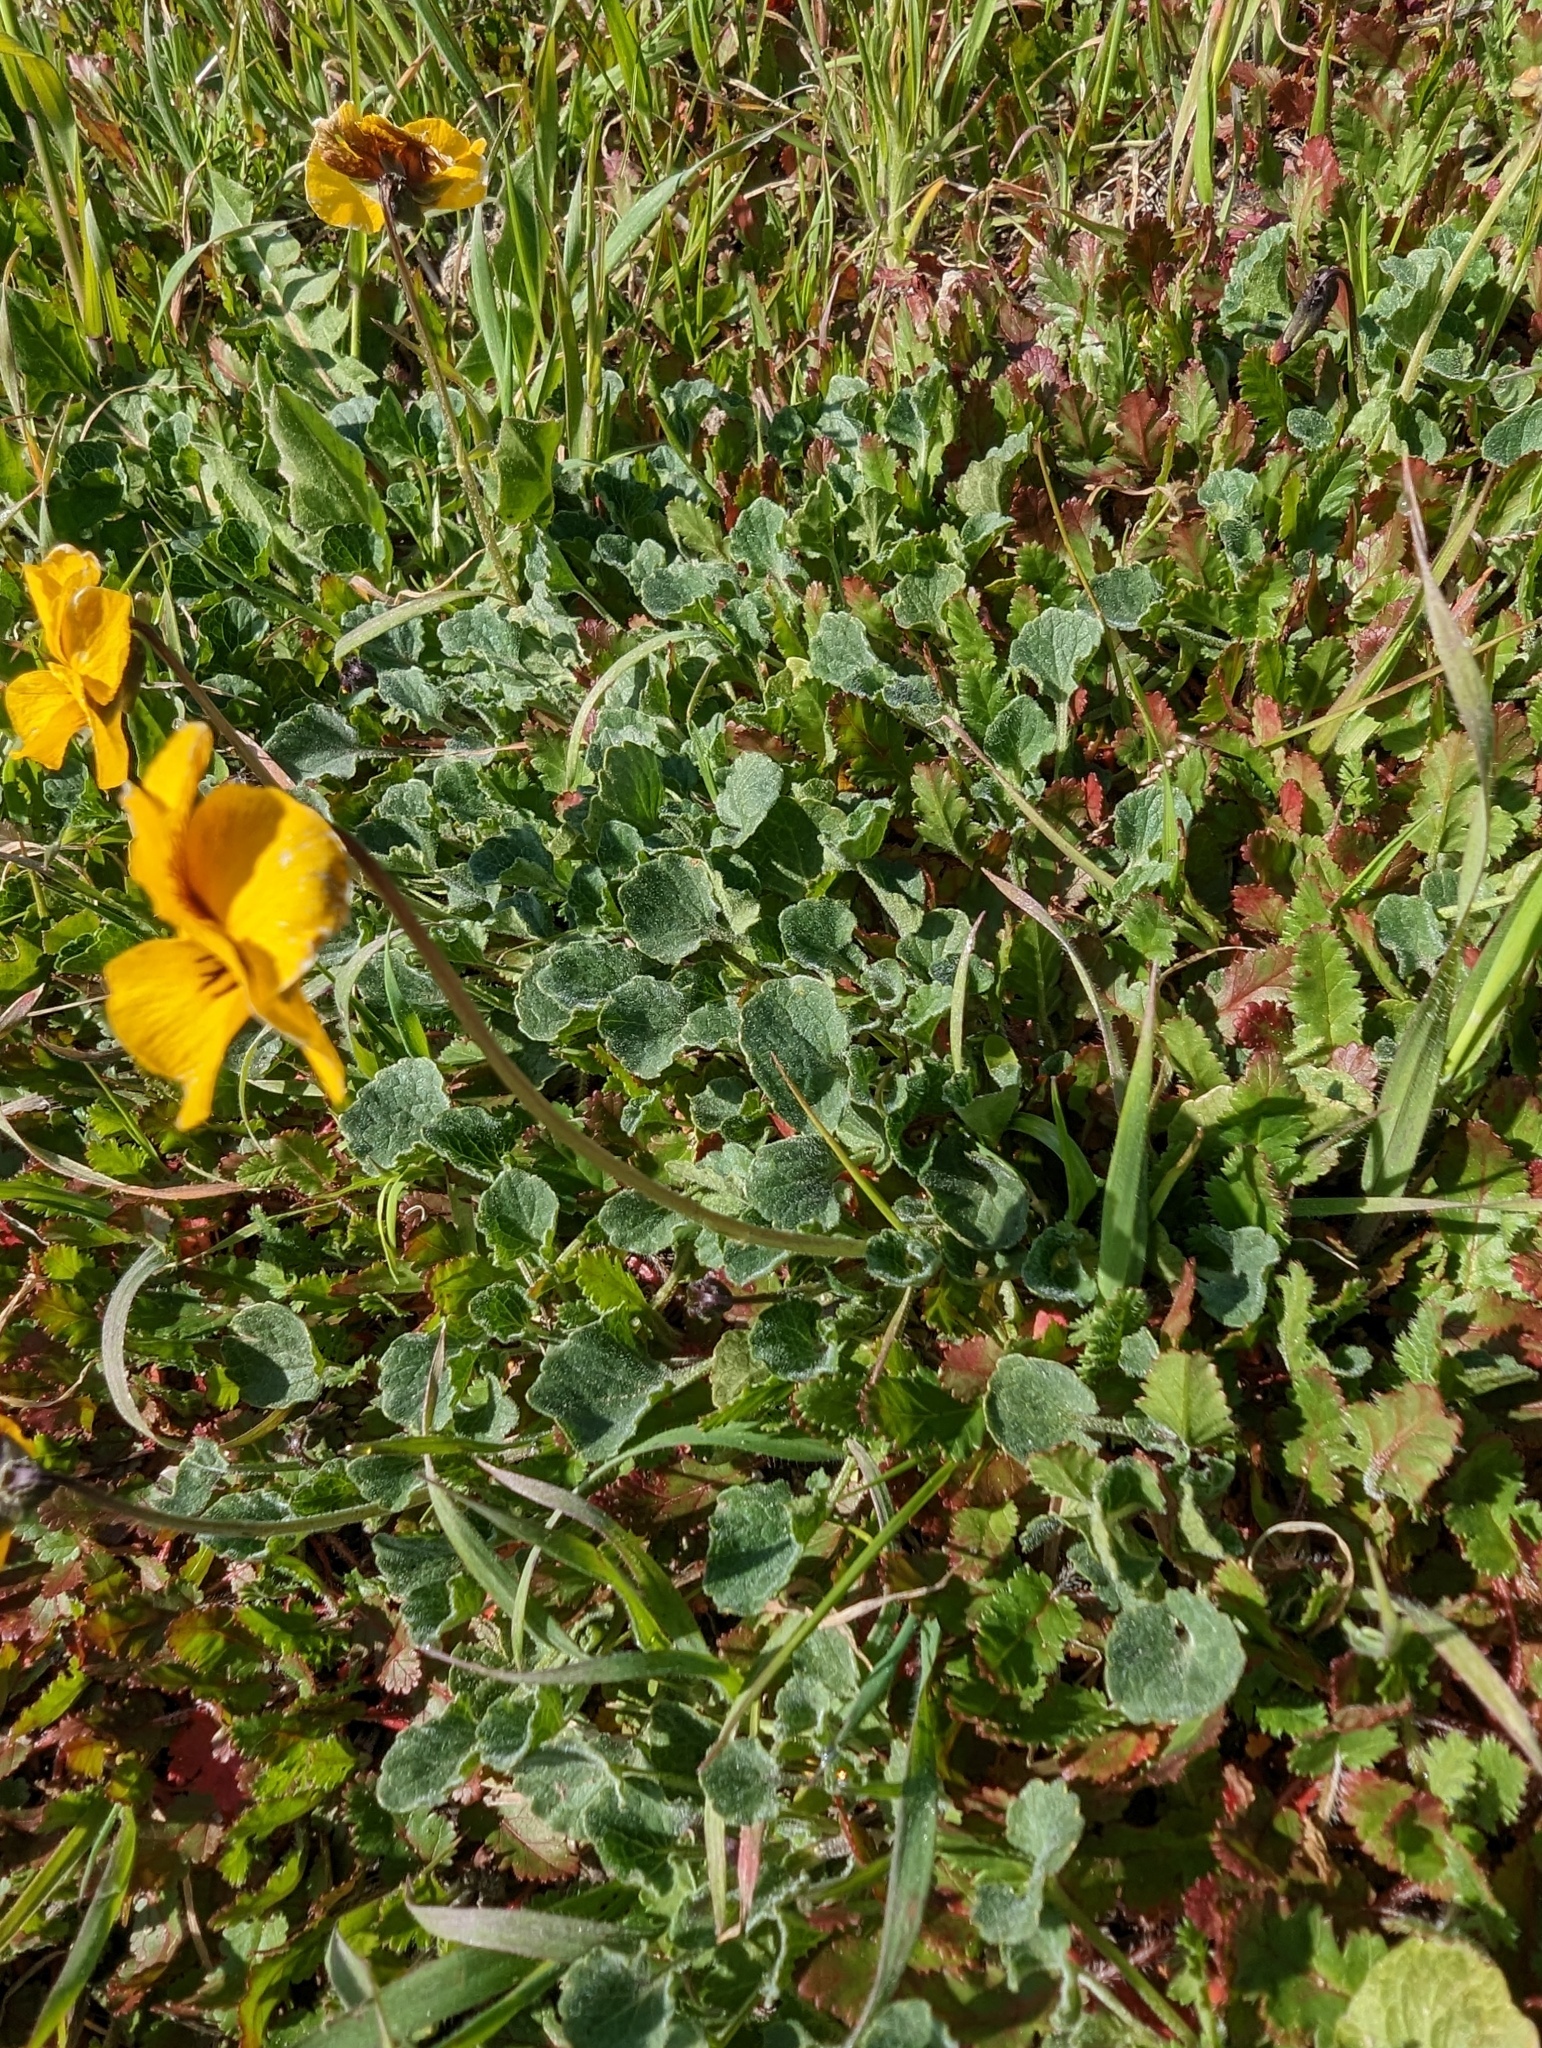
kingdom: Plantae
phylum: Tracheophyta
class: Magnoliopsida
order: Malpighiales
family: Violaceae
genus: Viola
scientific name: Viola pedunculata
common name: California golden violet
